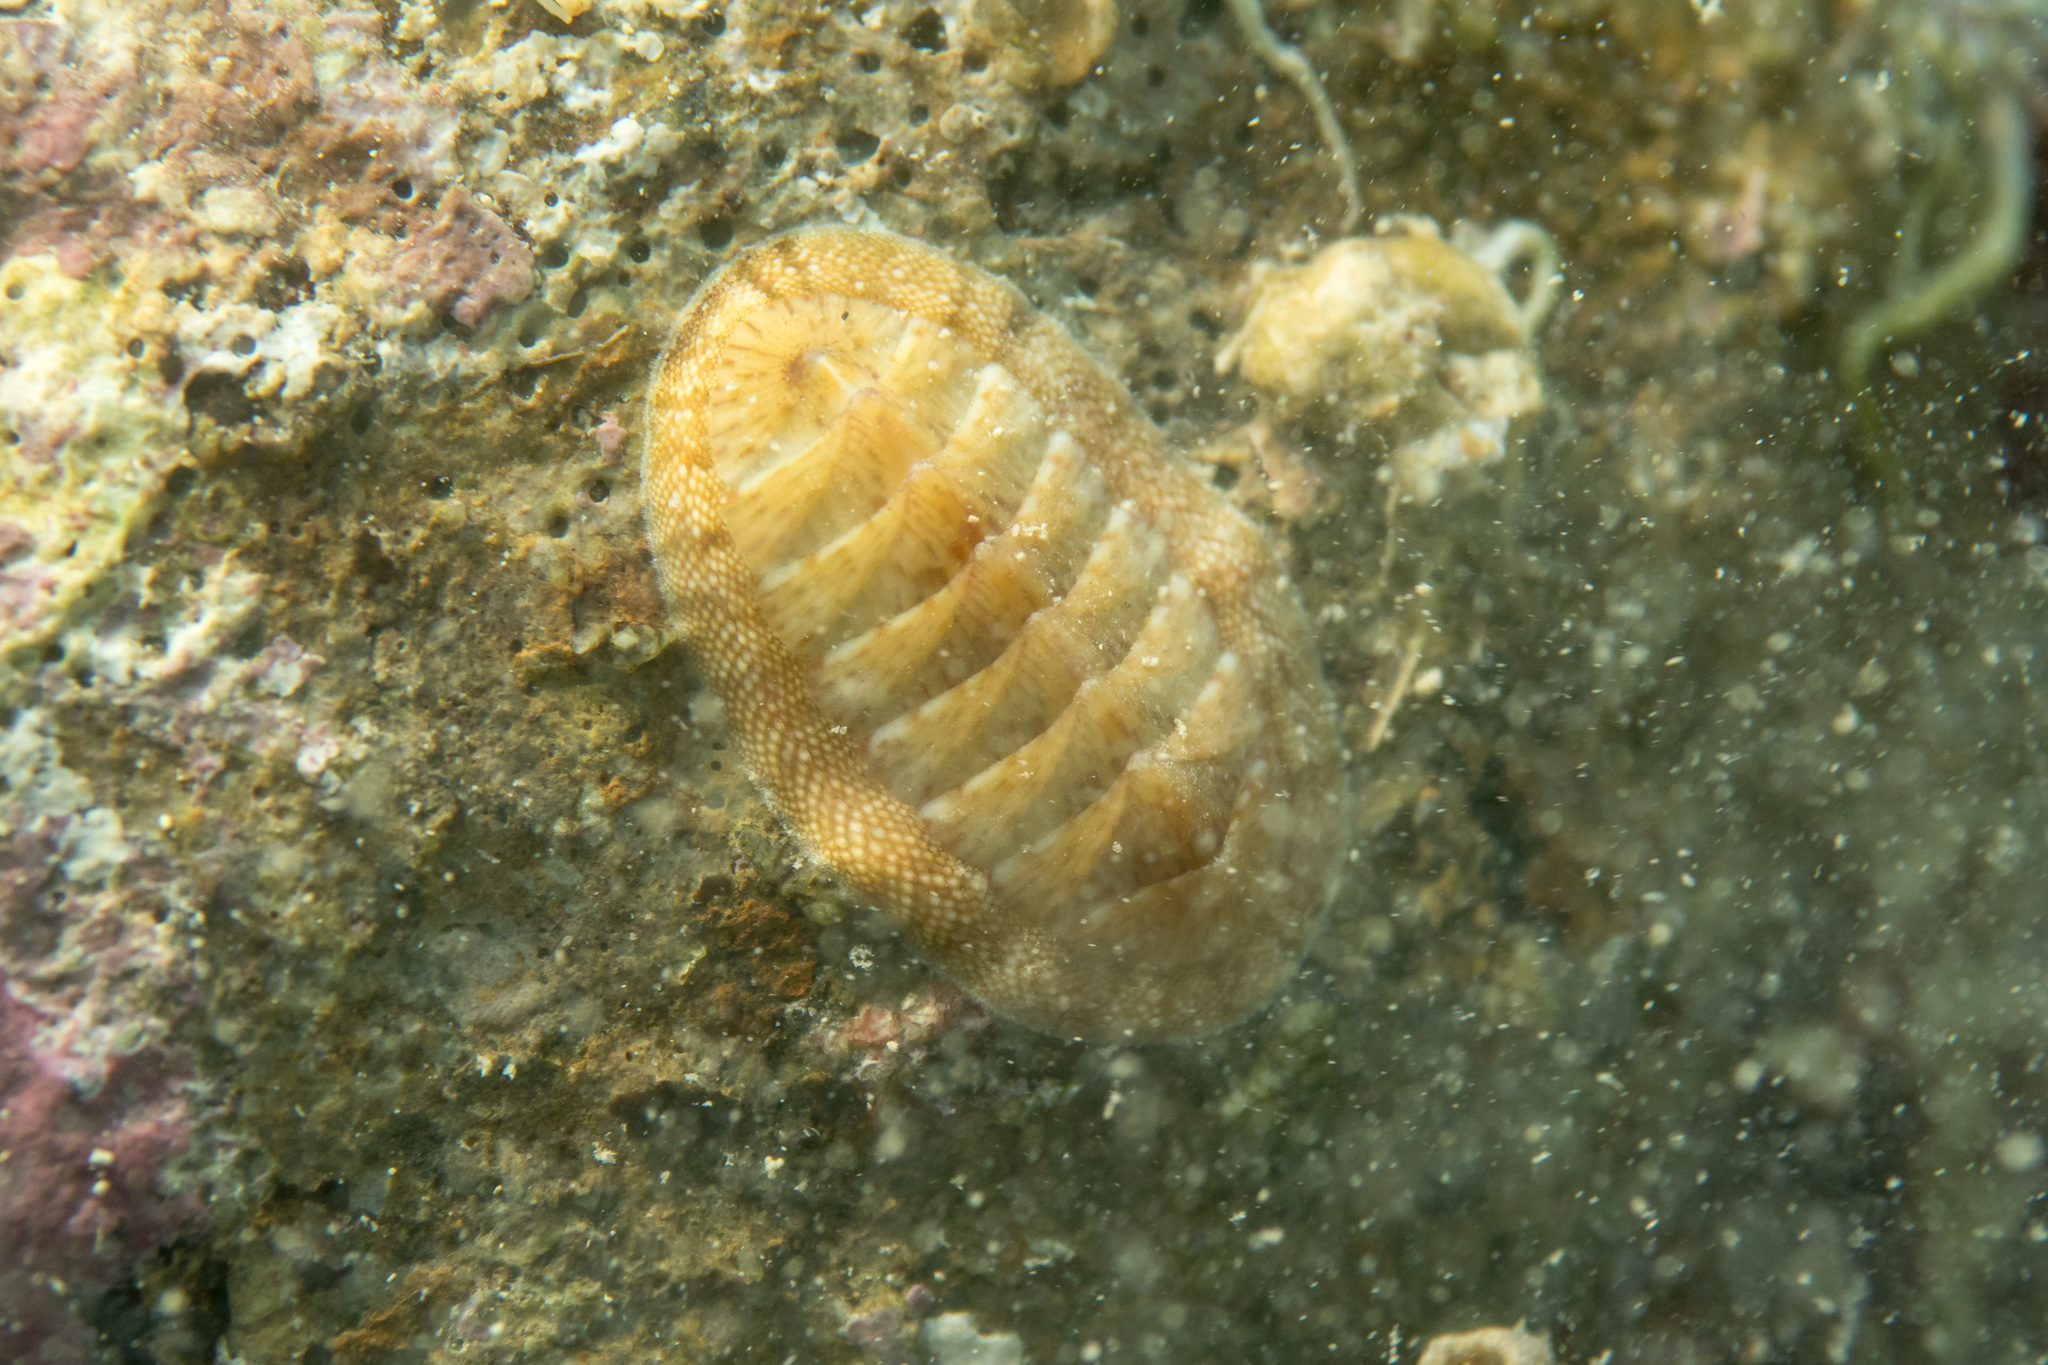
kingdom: Animalia
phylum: Mollusca
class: Polyplacophora
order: Chitonida
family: Chitonidae
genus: Rhyssoplax
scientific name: Rhyssoplax olivacea
